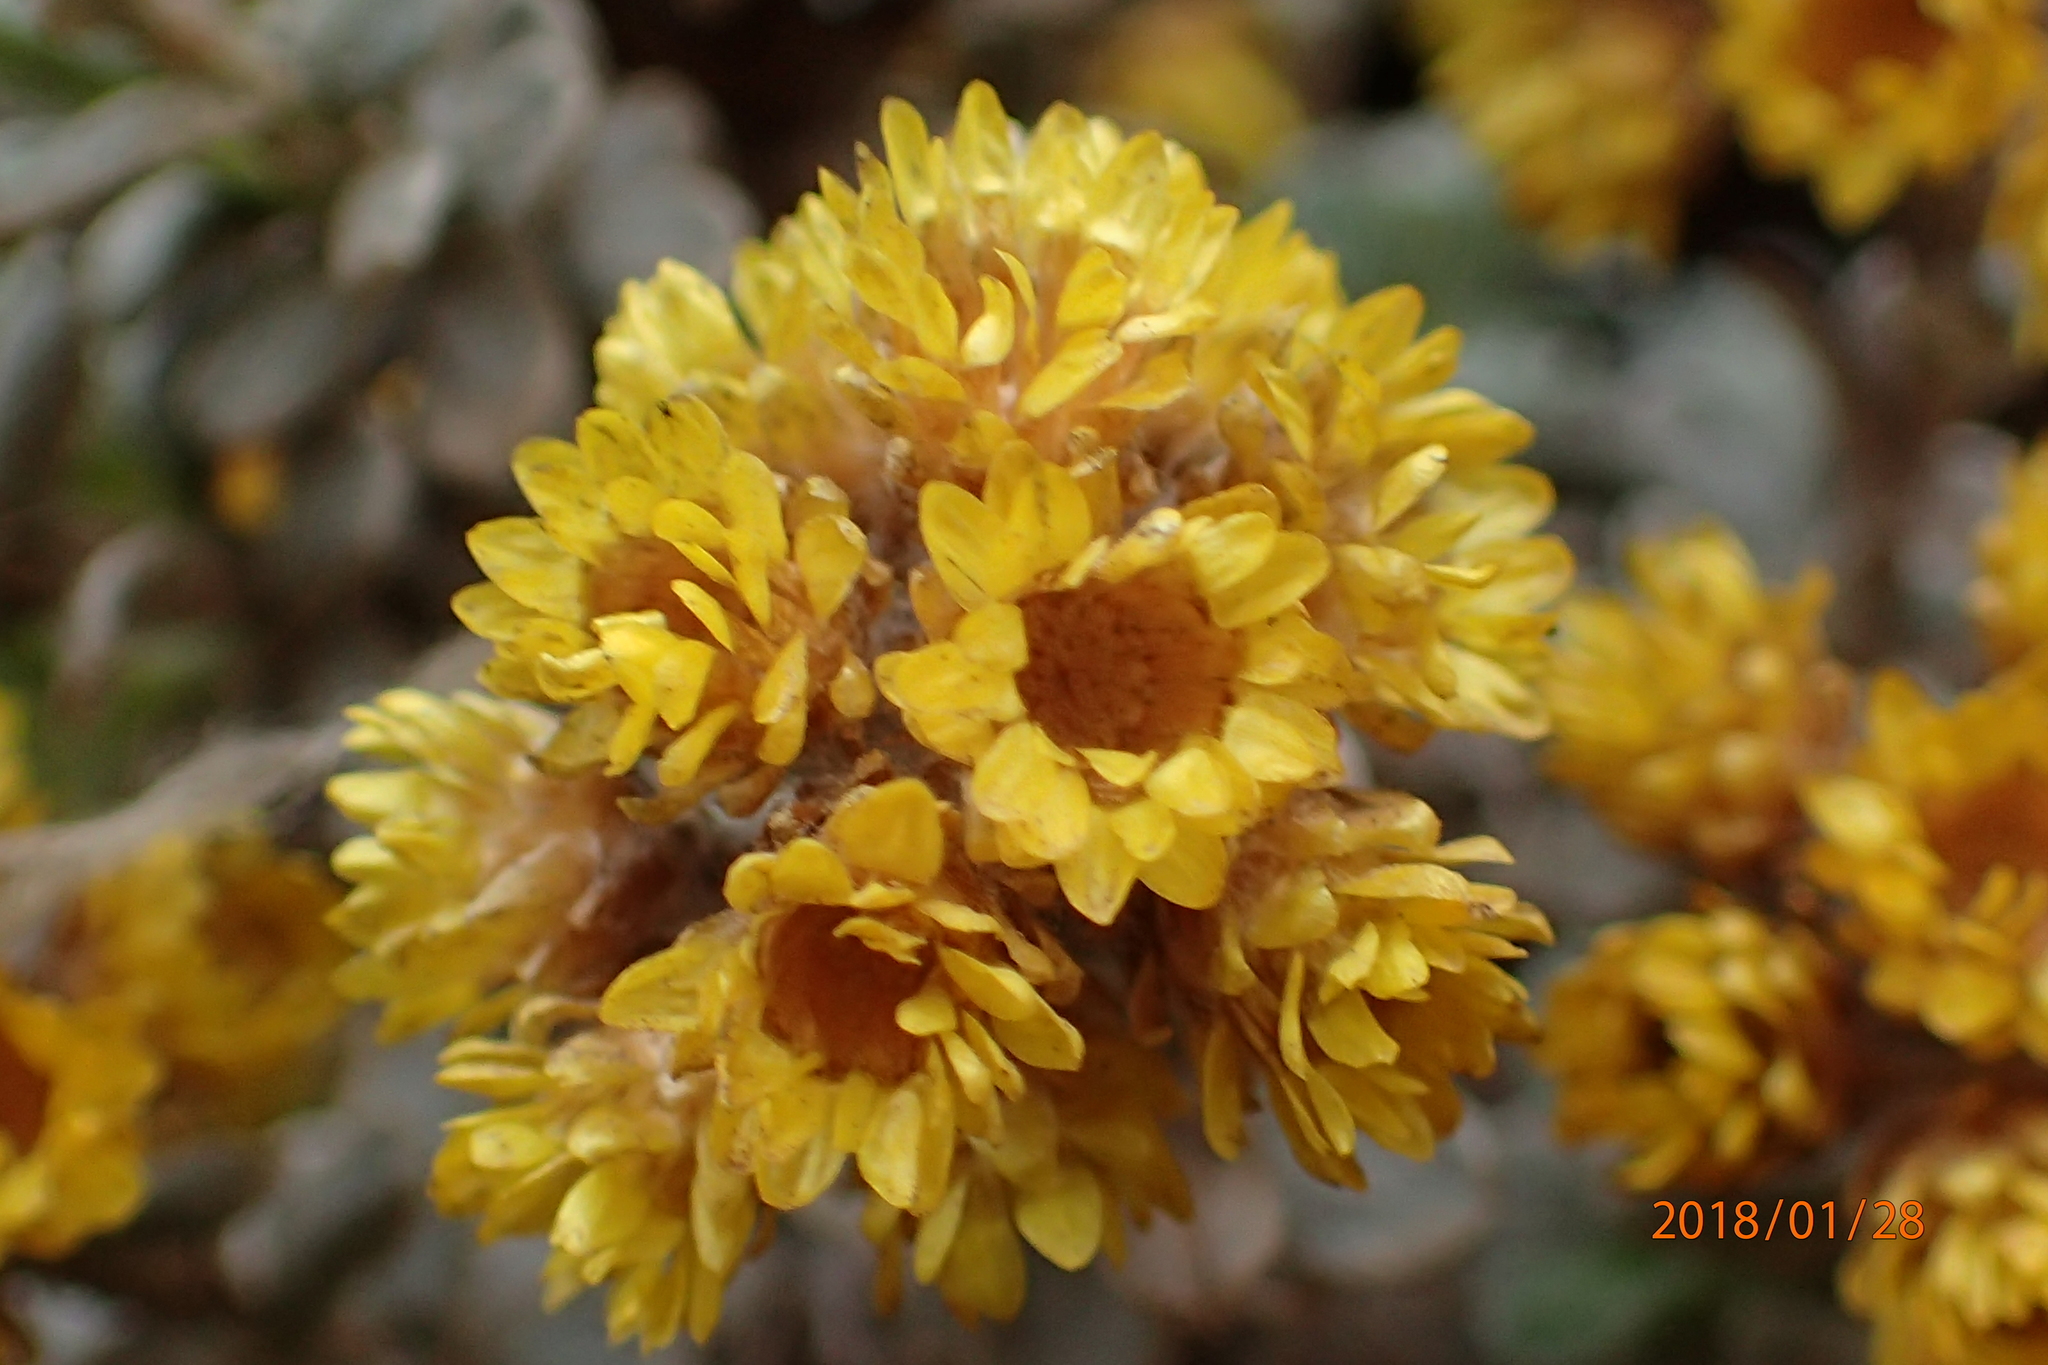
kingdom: Plantae
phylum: Tracheophyta
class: Magnoliopsida
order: Asterales
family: Asteraceae
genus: Helichrysum
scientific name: Helichrysum trilineatum
